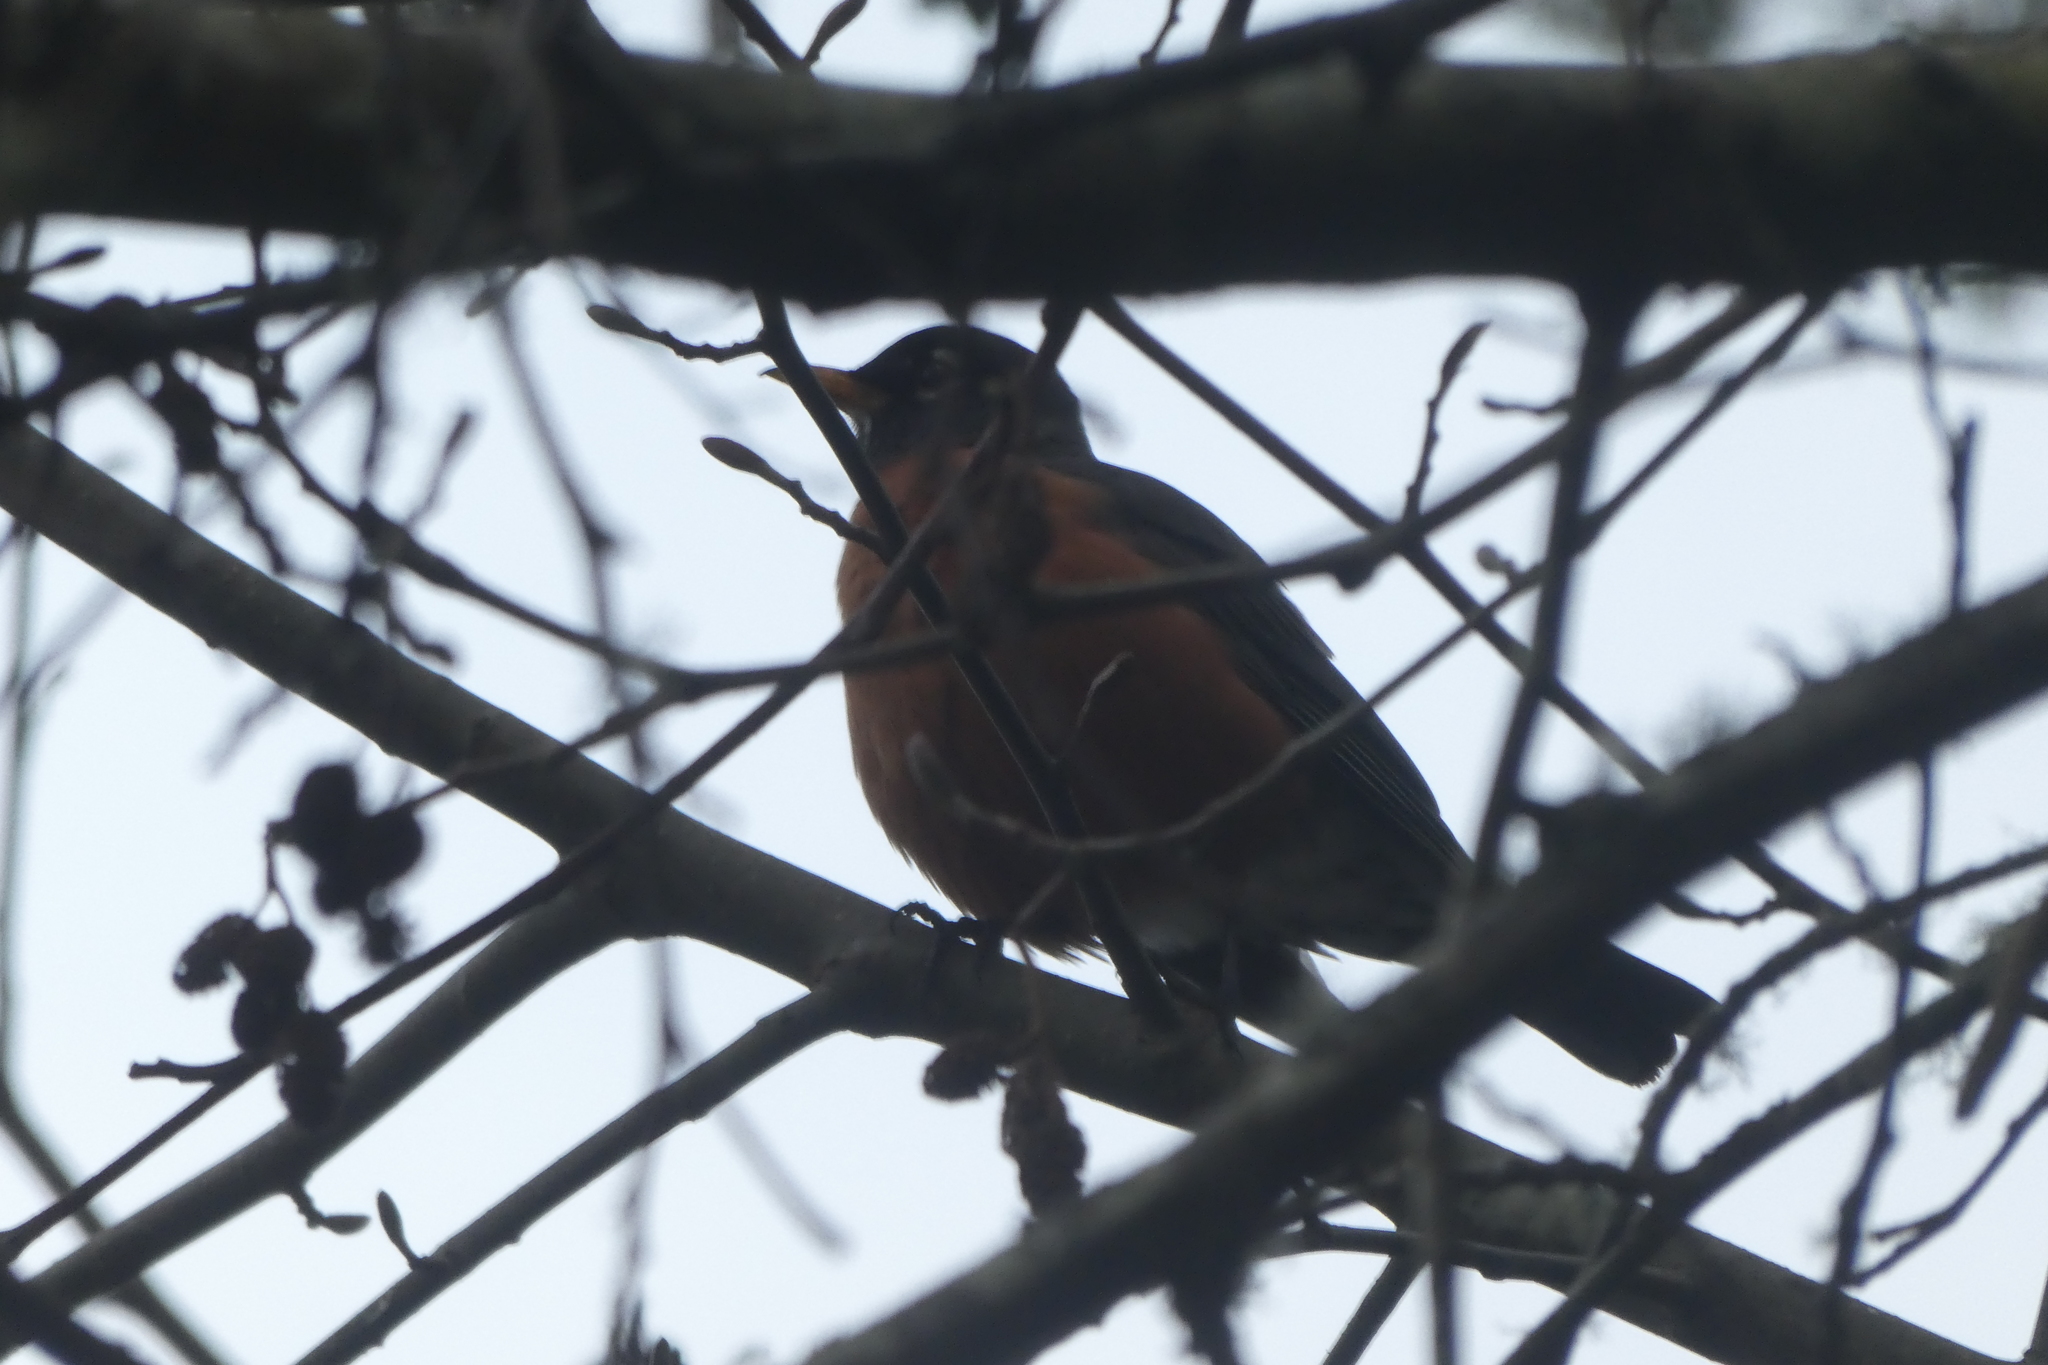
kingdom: Animalia
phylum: Chordata
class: Aves
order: Passeriformes
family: Turdidae
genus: Turdus
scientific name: Turdus migratorius
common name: American robin
